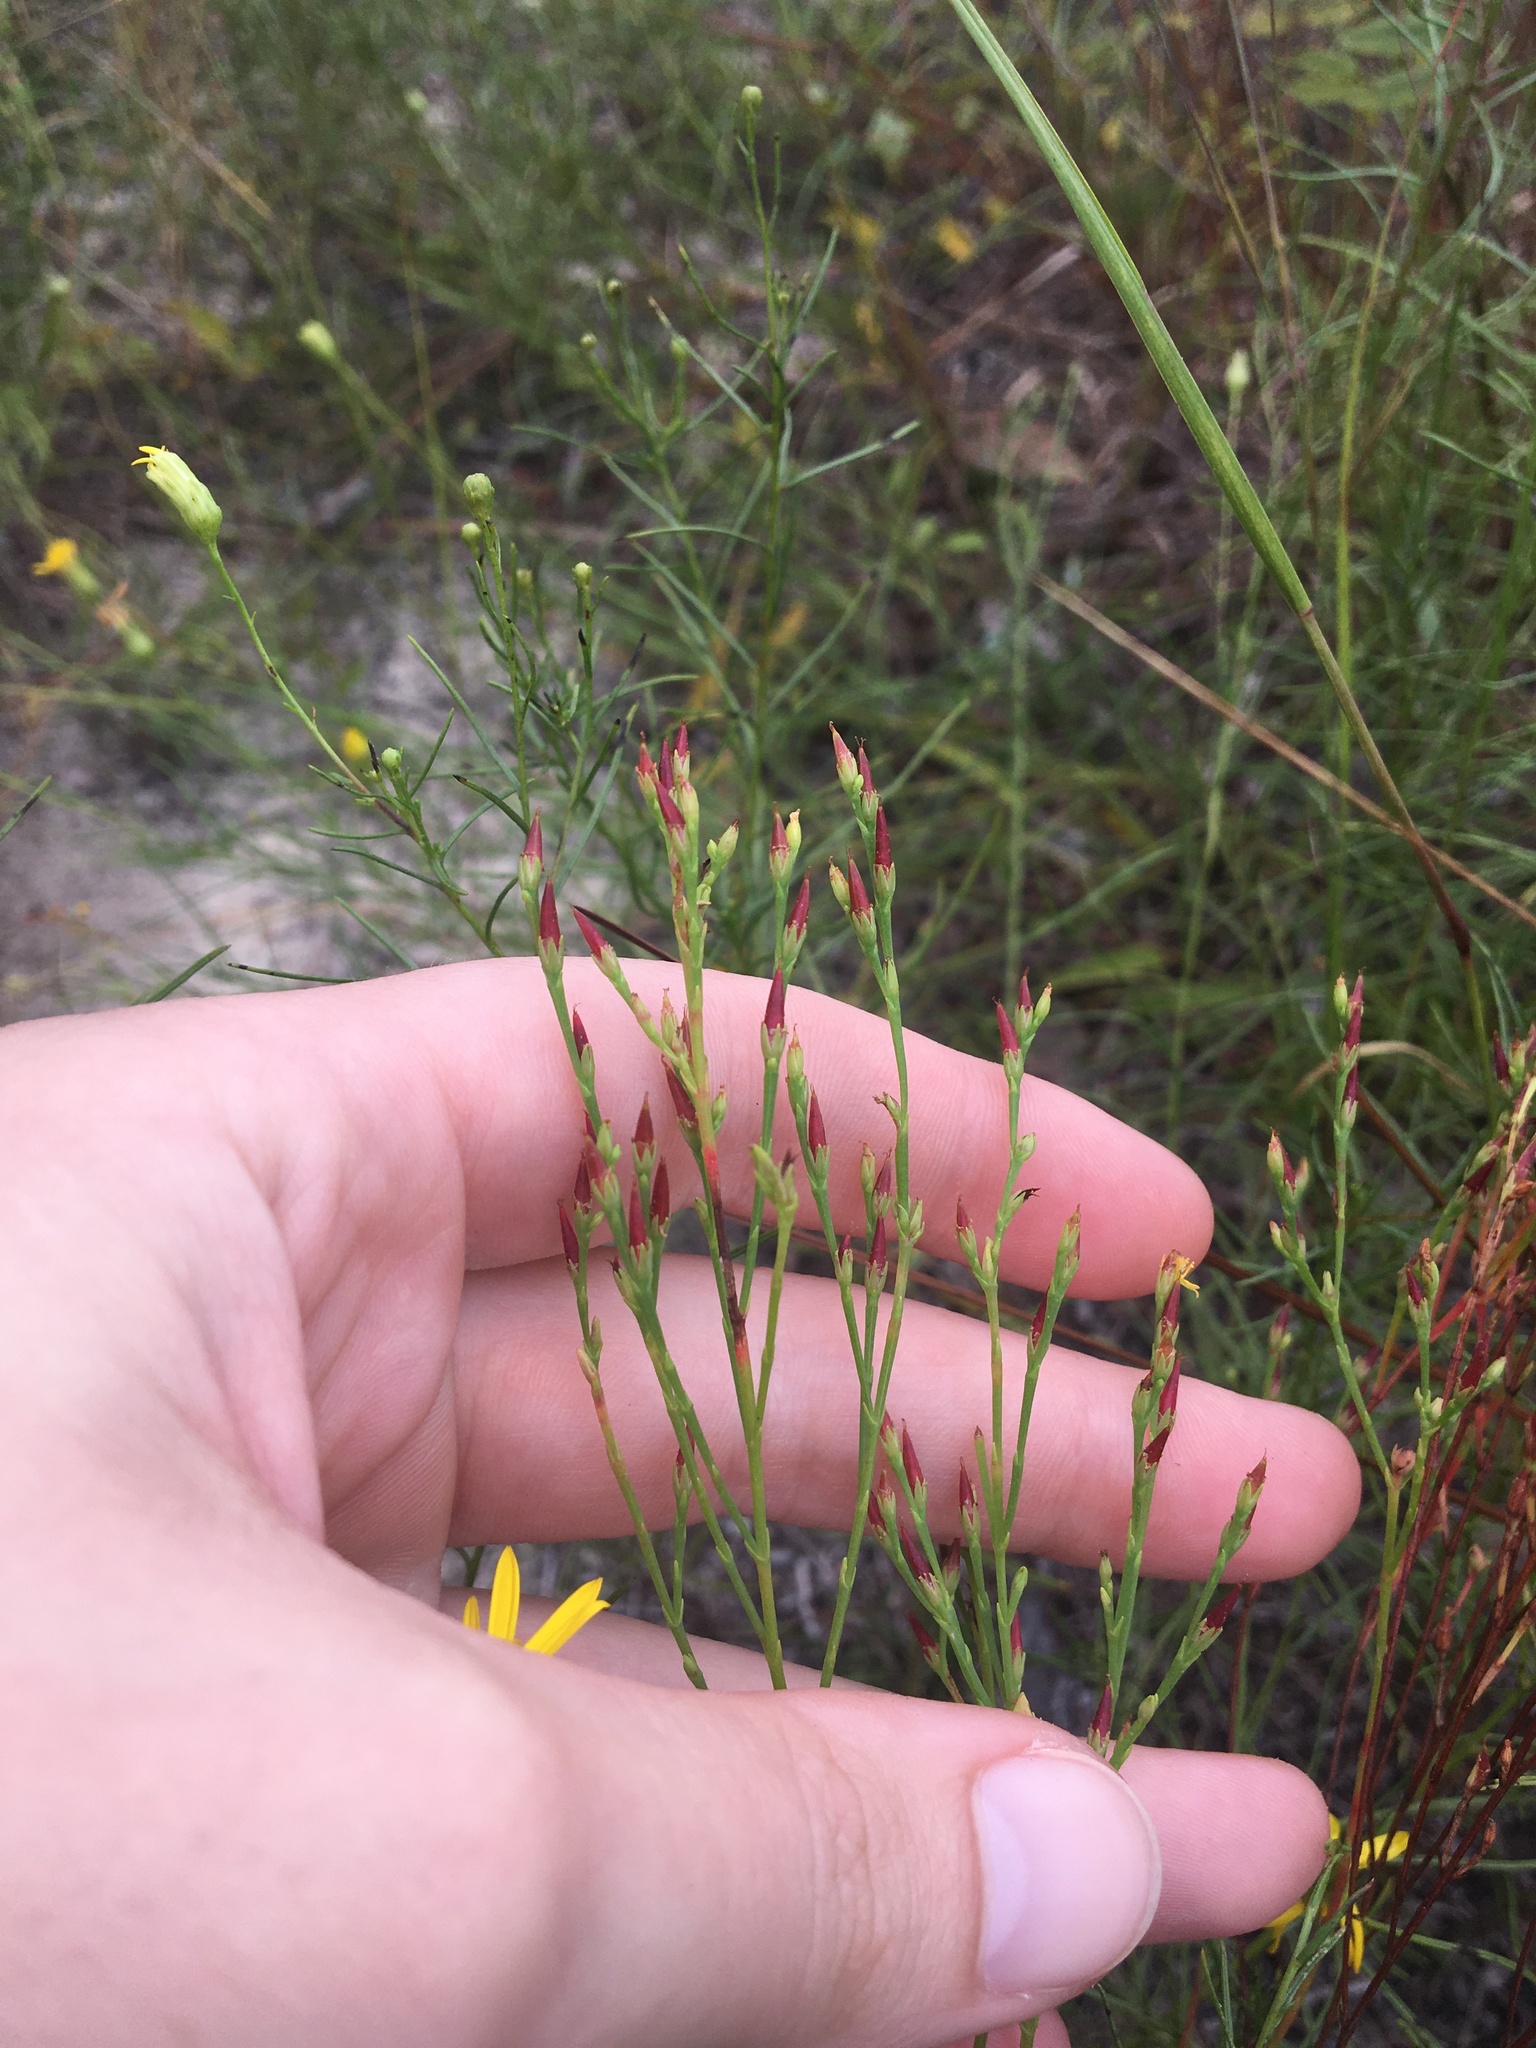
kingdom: Plantae
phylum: Tracheophyta
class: Magnoliopsida
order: Malpighiales
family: Hypericaceae
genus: Hypericum
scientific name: Hypericum gentianoides
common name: Gentian-leaved st. john's-wort
